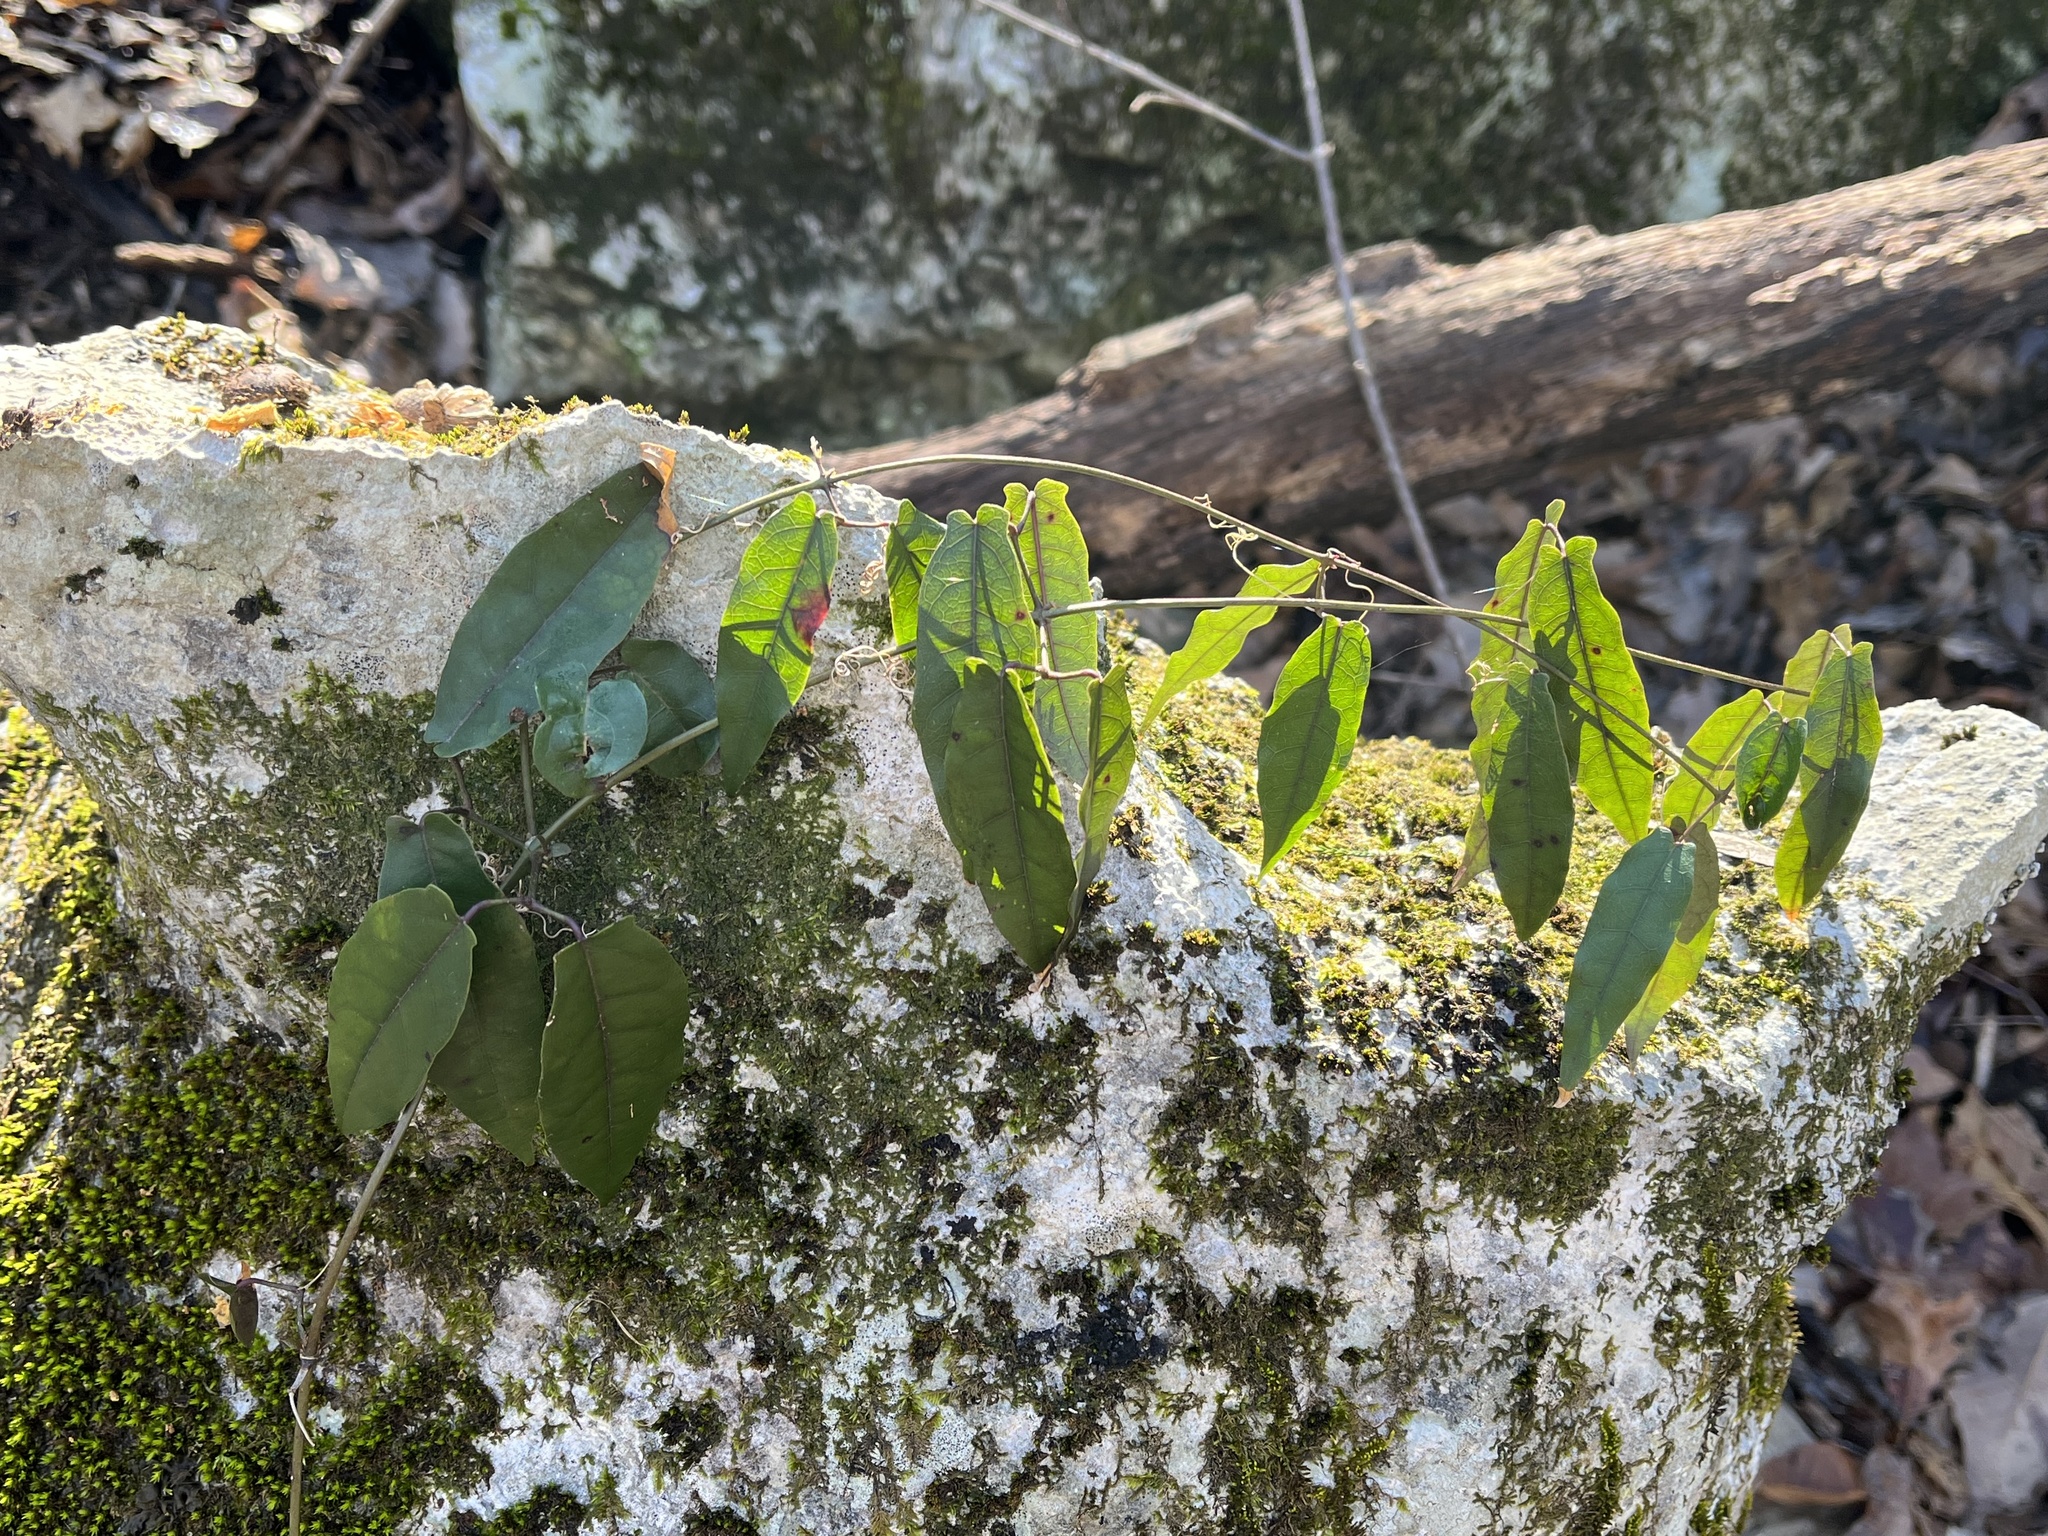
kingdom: Plantae
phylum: Tracheophyta
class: Magnoliopsida
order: Lamiales
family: Bignoniaceae
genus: Bignonia
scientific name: Bignonia capreolata
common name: Crossvine
